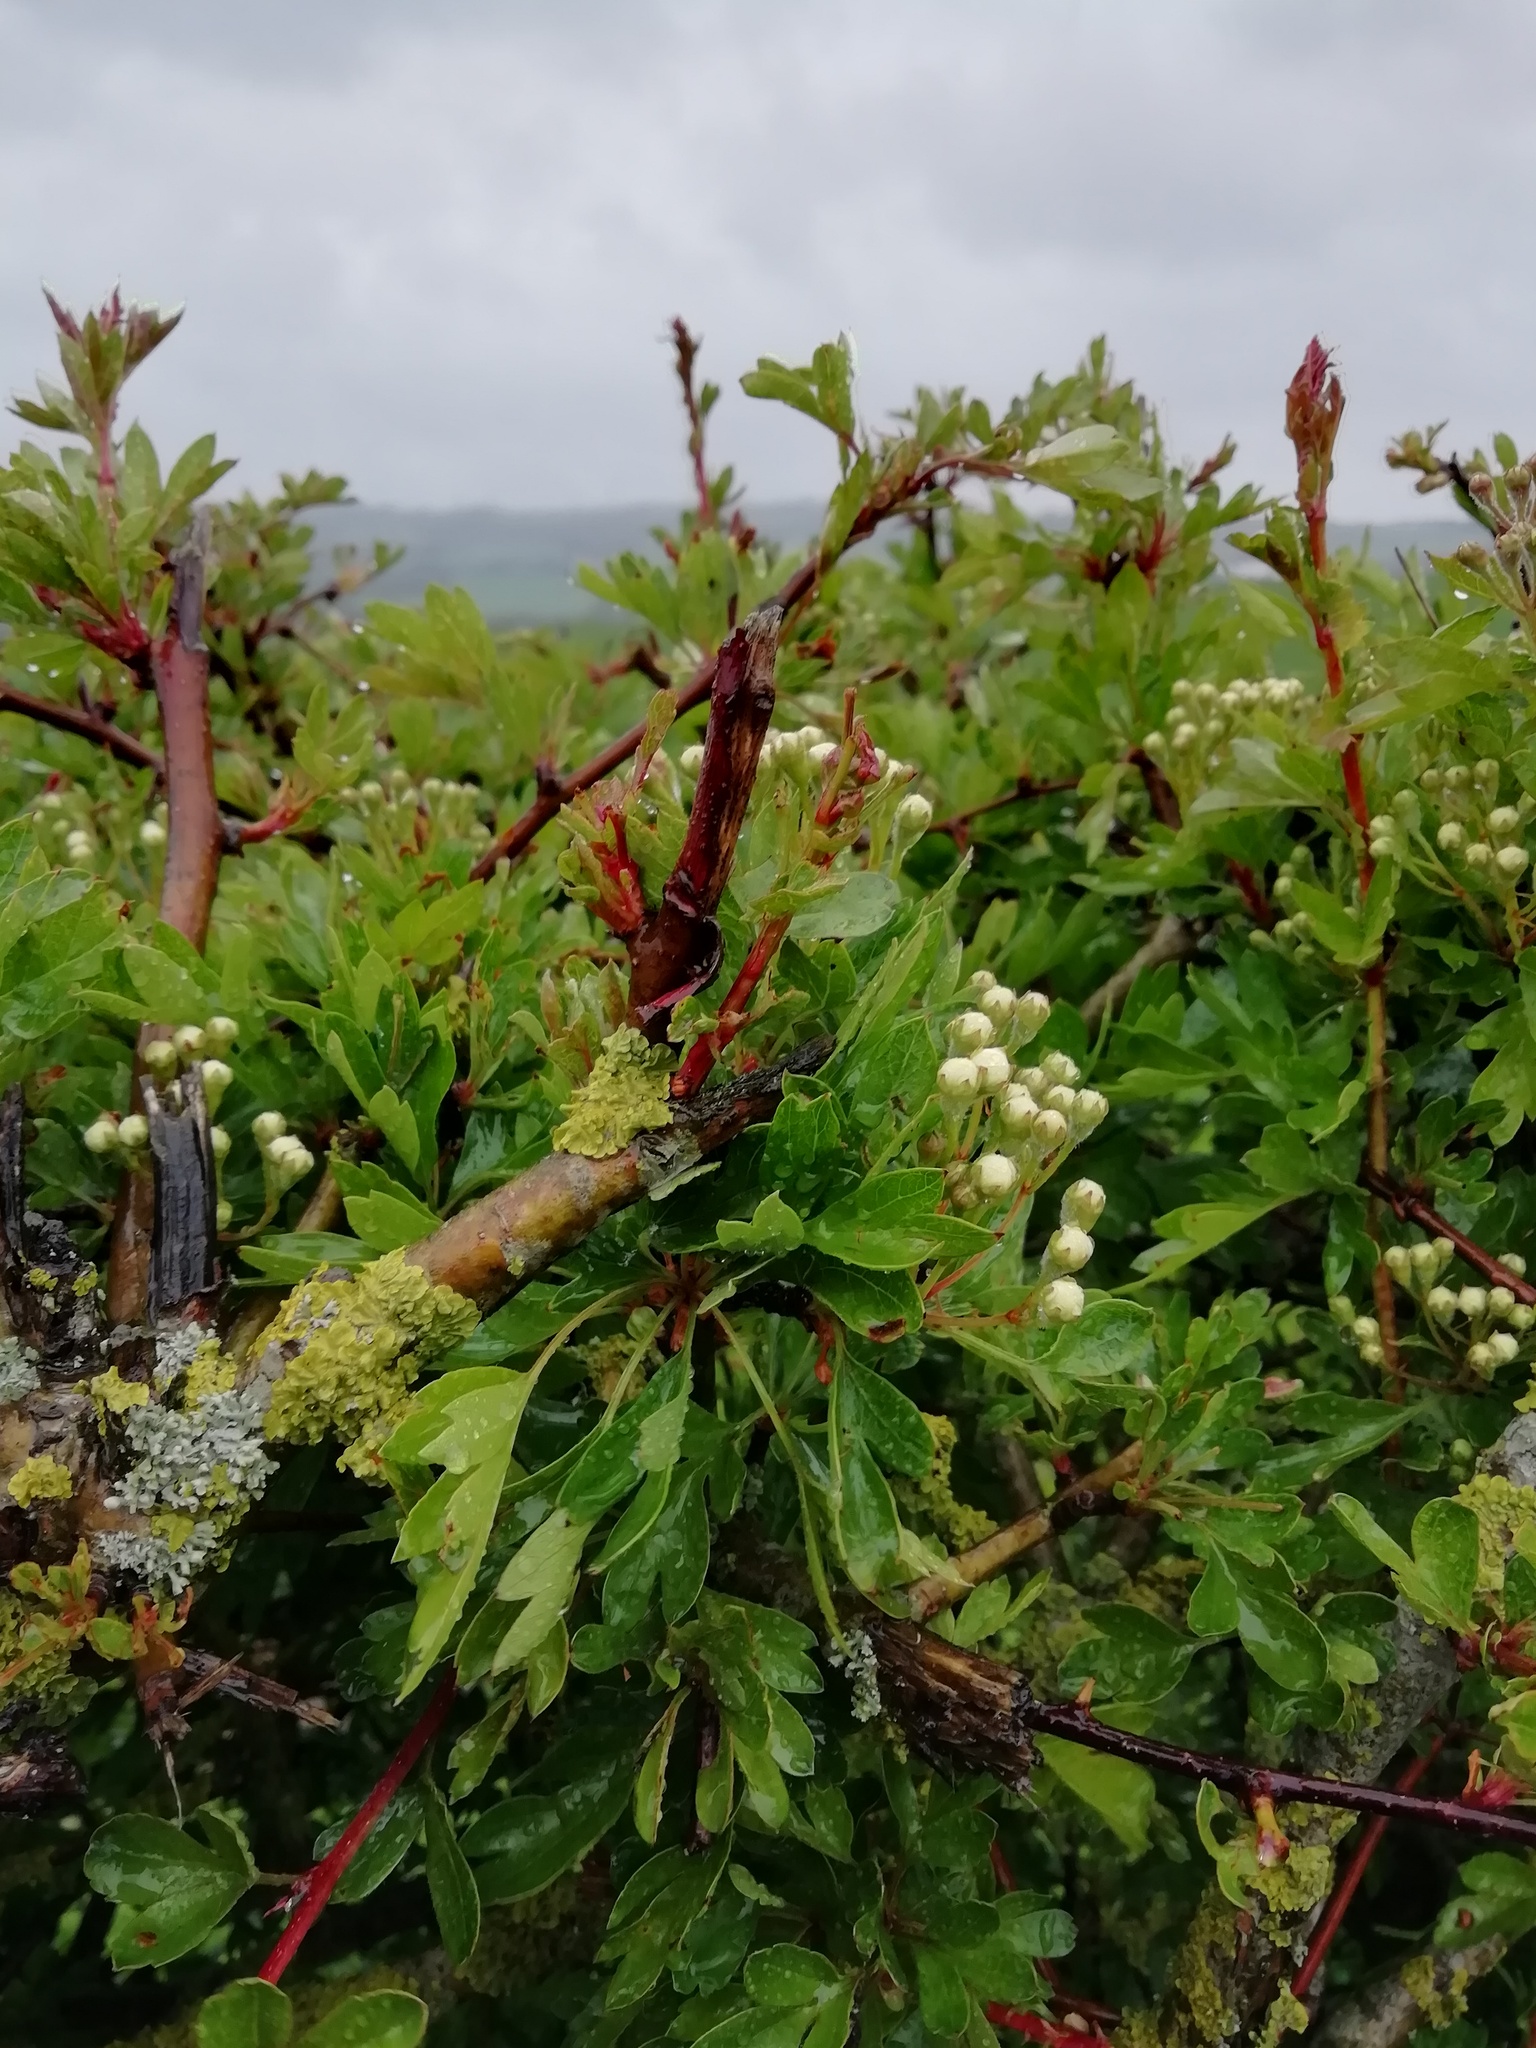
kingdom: Plantae
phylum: Tracheophyta
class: Magnoliopsida
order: Rosales
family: Rosaceae
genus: Crataegus
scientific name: Crataegus monogyna
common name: Hawthorn
